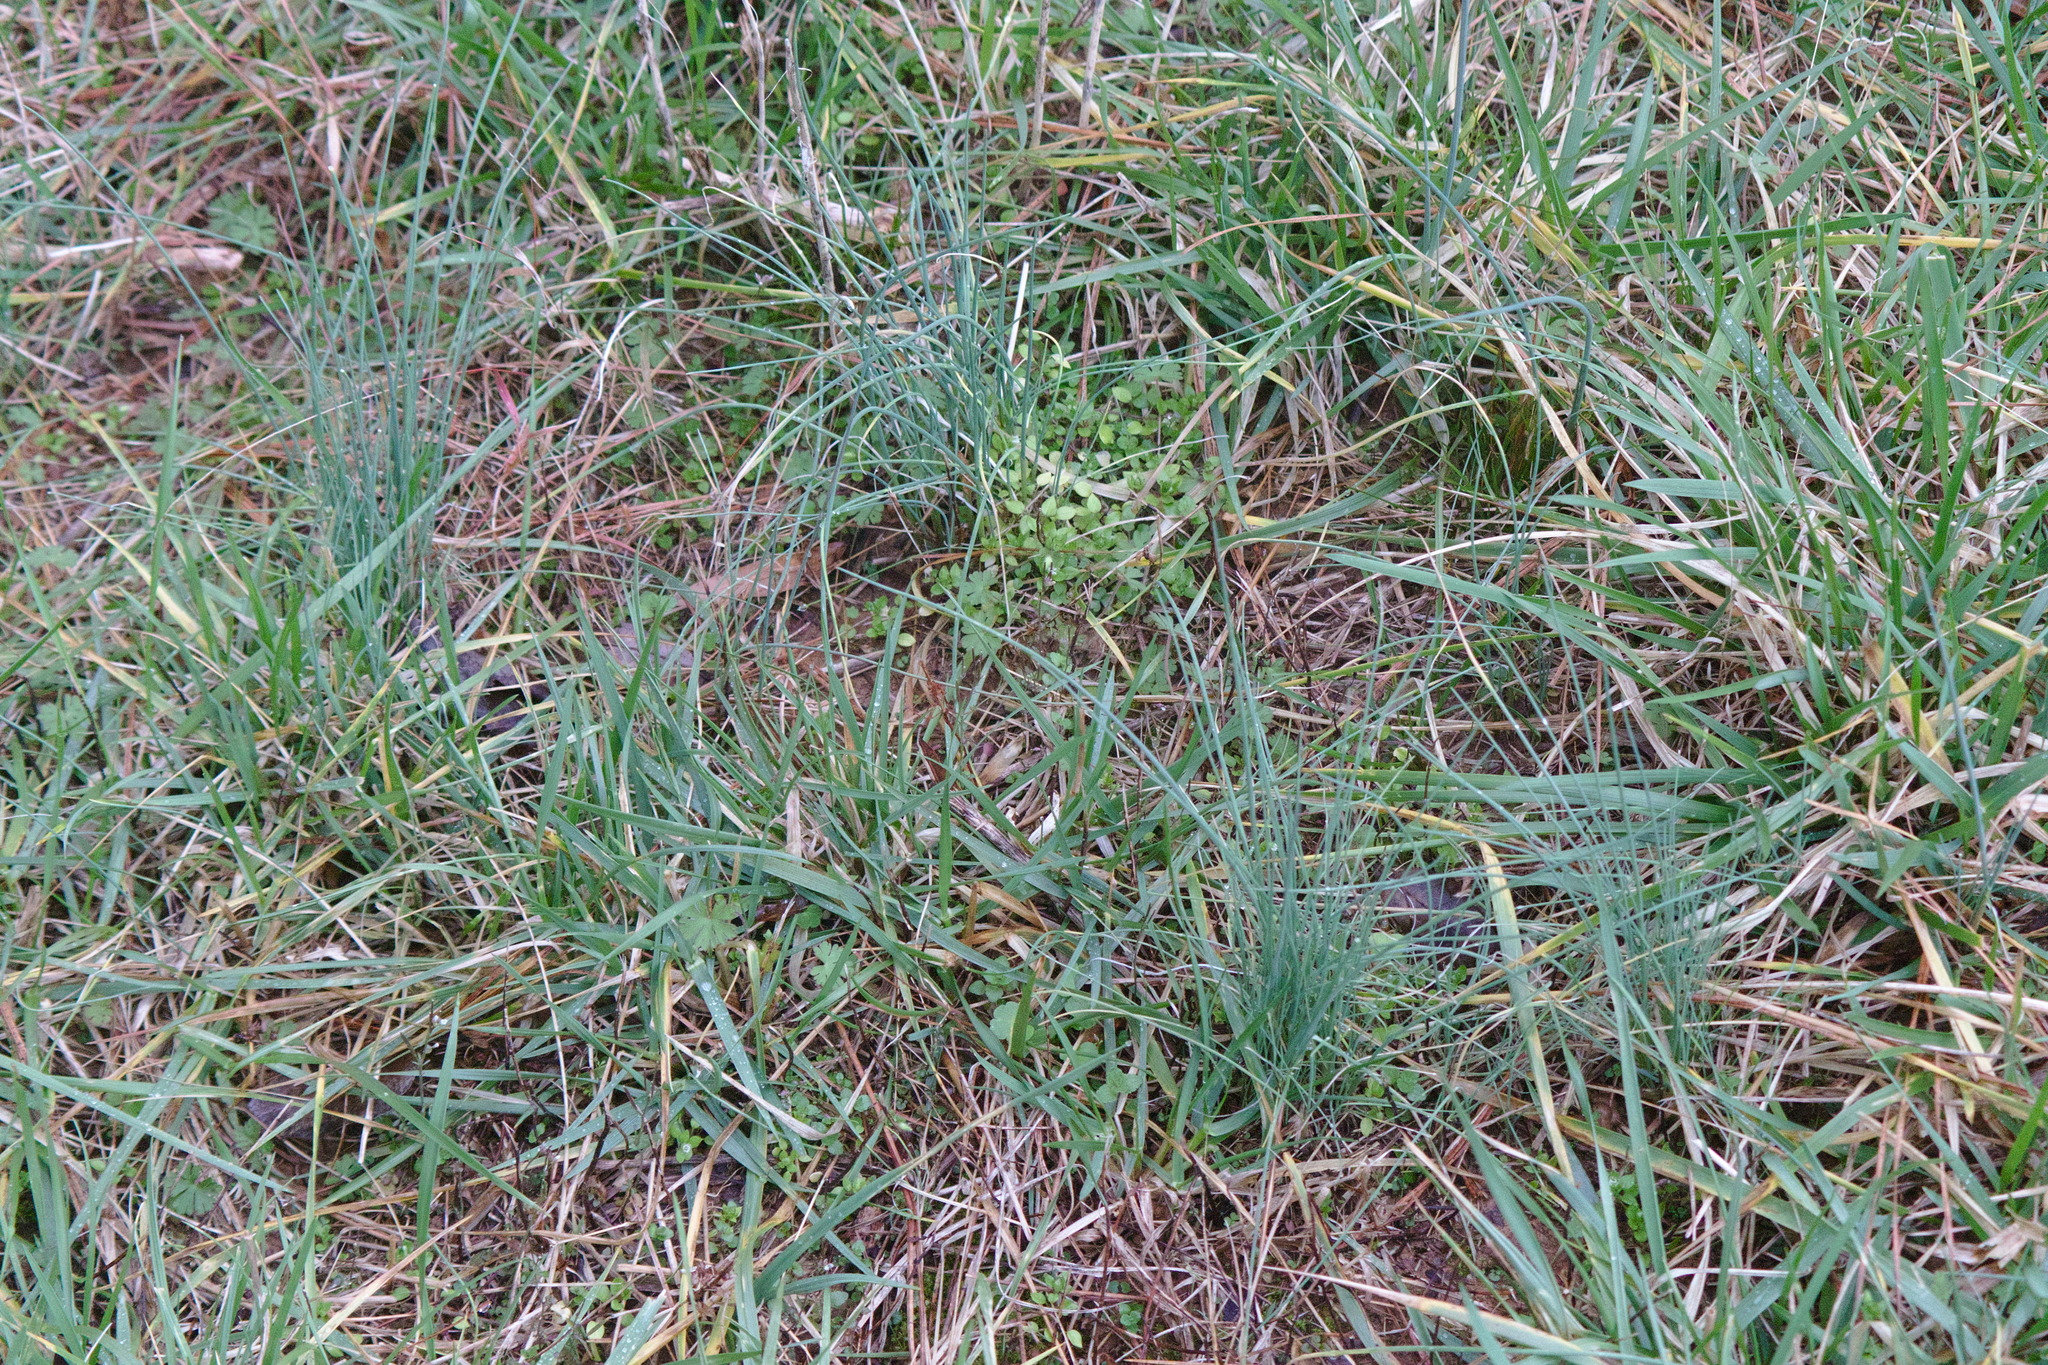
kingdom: Plantae
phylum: Tracheophyta
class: Liliopsida
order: Asparagales
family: Amaryllidaceae
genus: Allium
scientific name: Allium vineale
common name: Crow garlic
